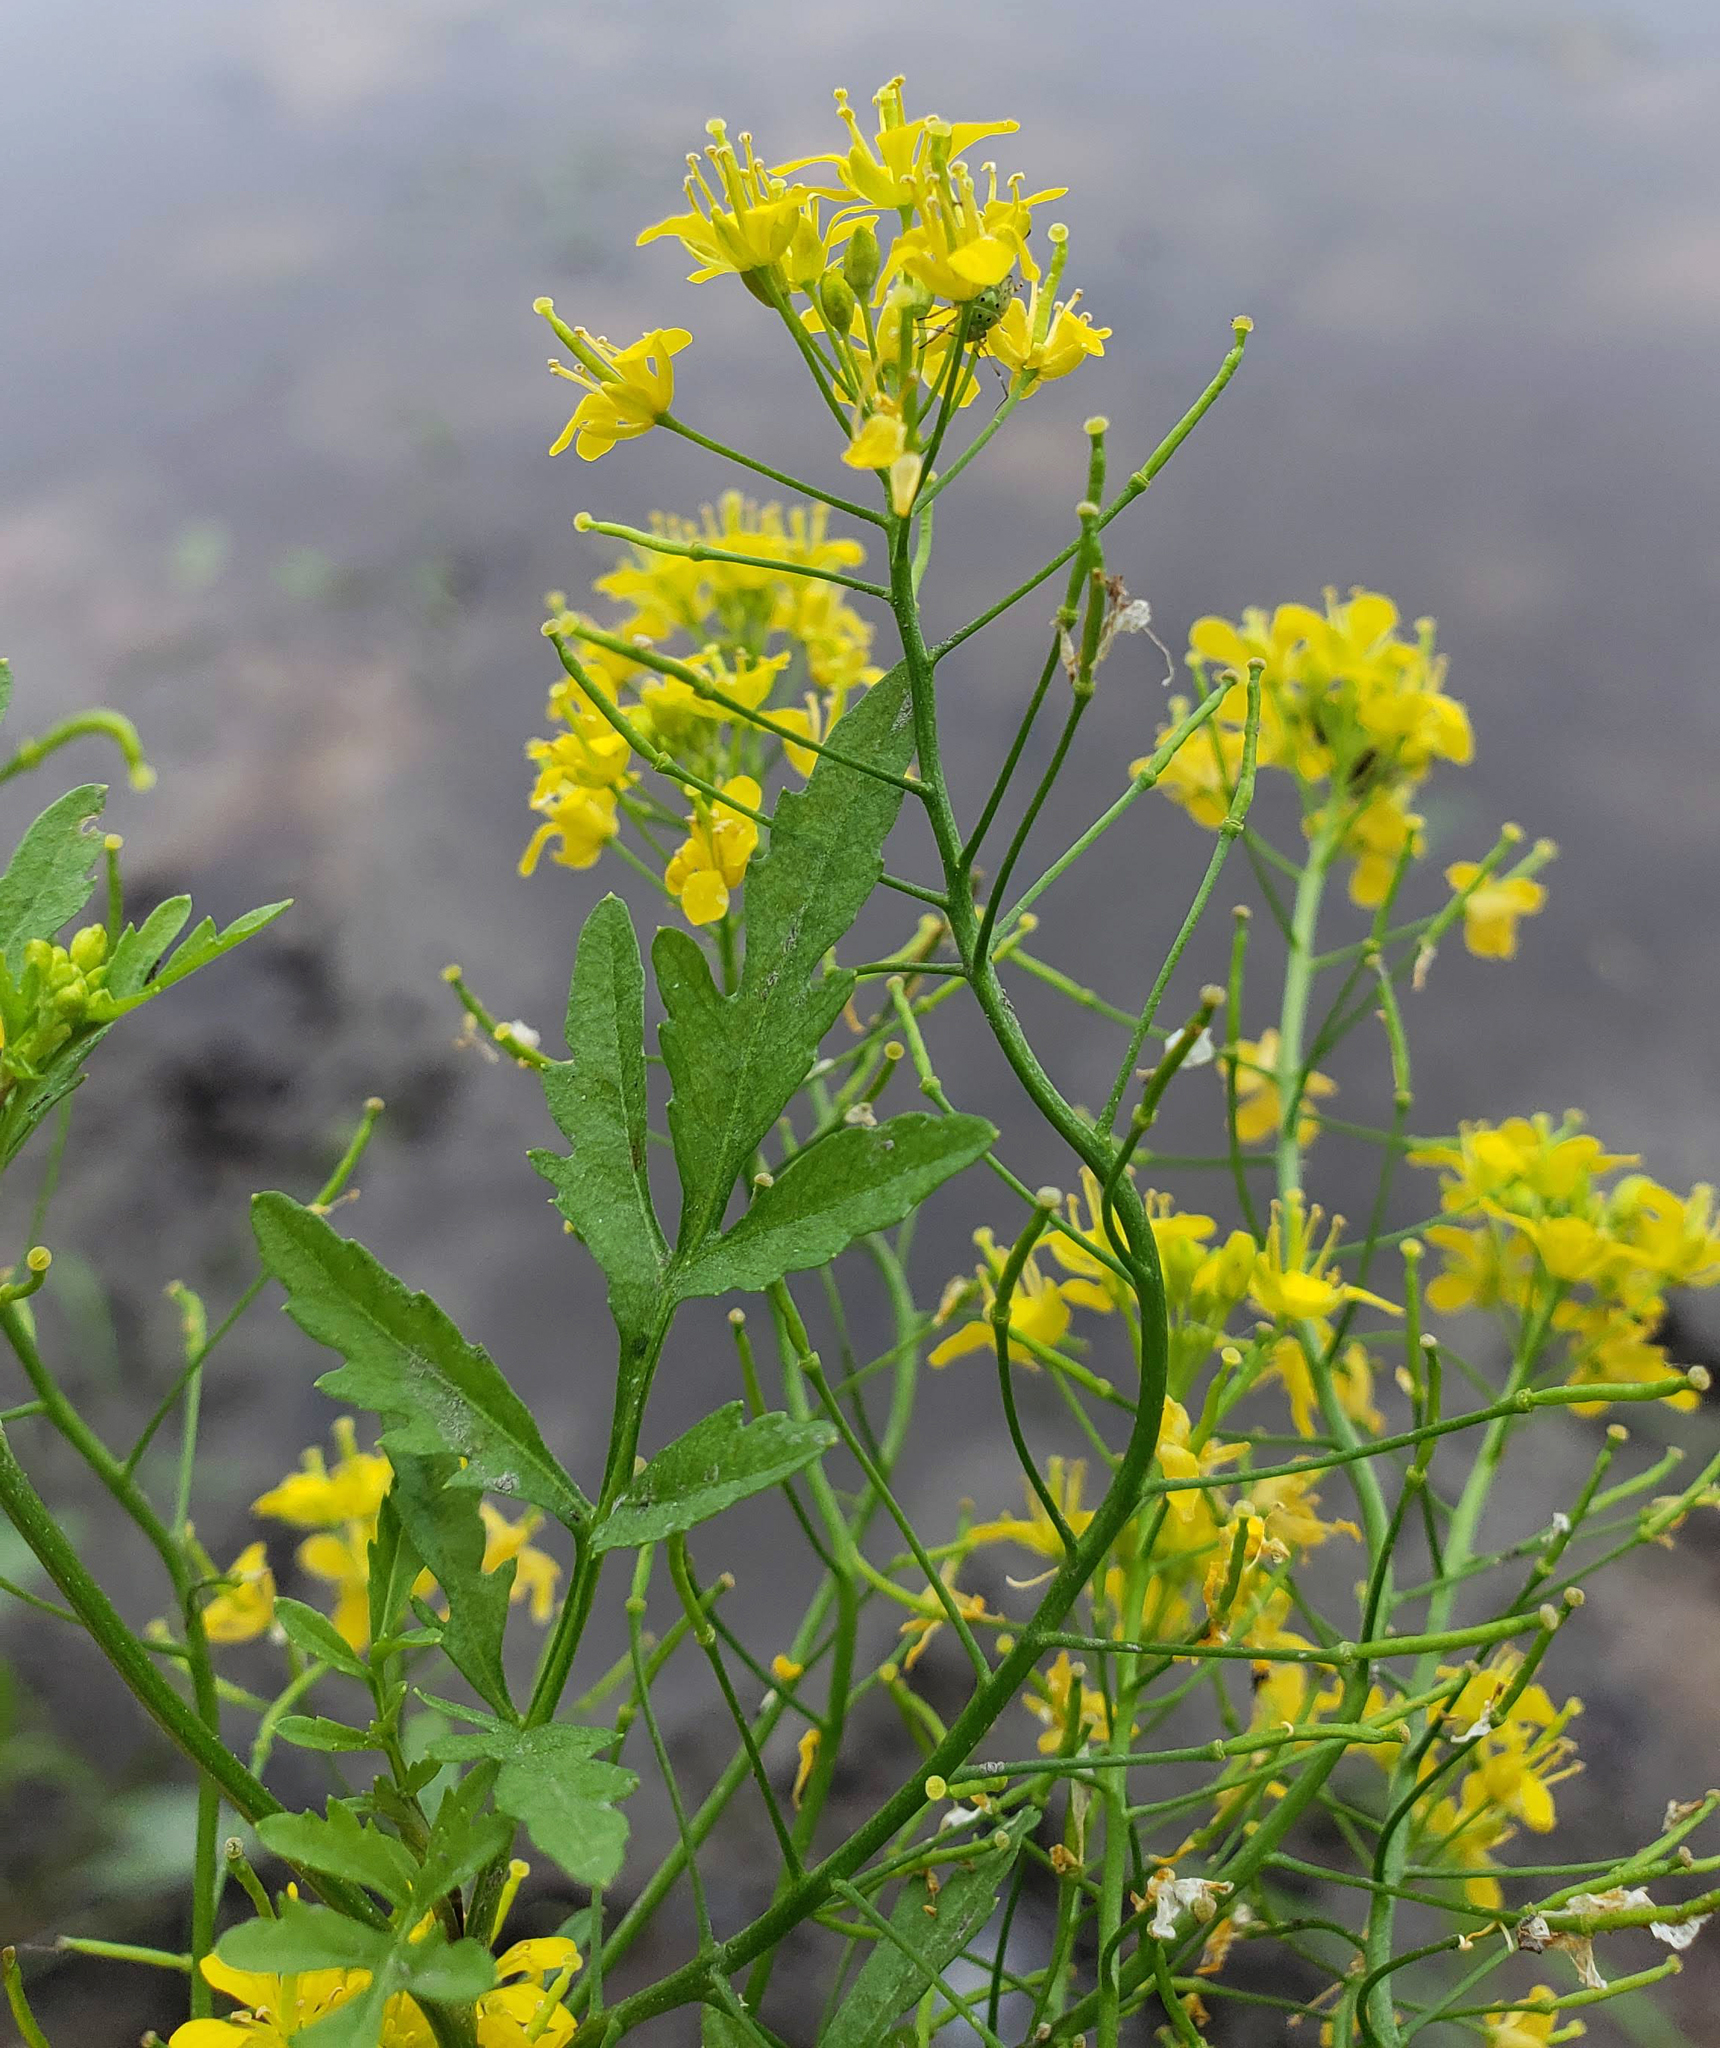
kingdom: Plantae
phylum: Tracheophyta
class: Magnoliopsida
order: Brassicales
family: Brassicaceae
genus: Rorippa
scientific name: Rorippa sylvestris
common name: Creeping yellowcress
